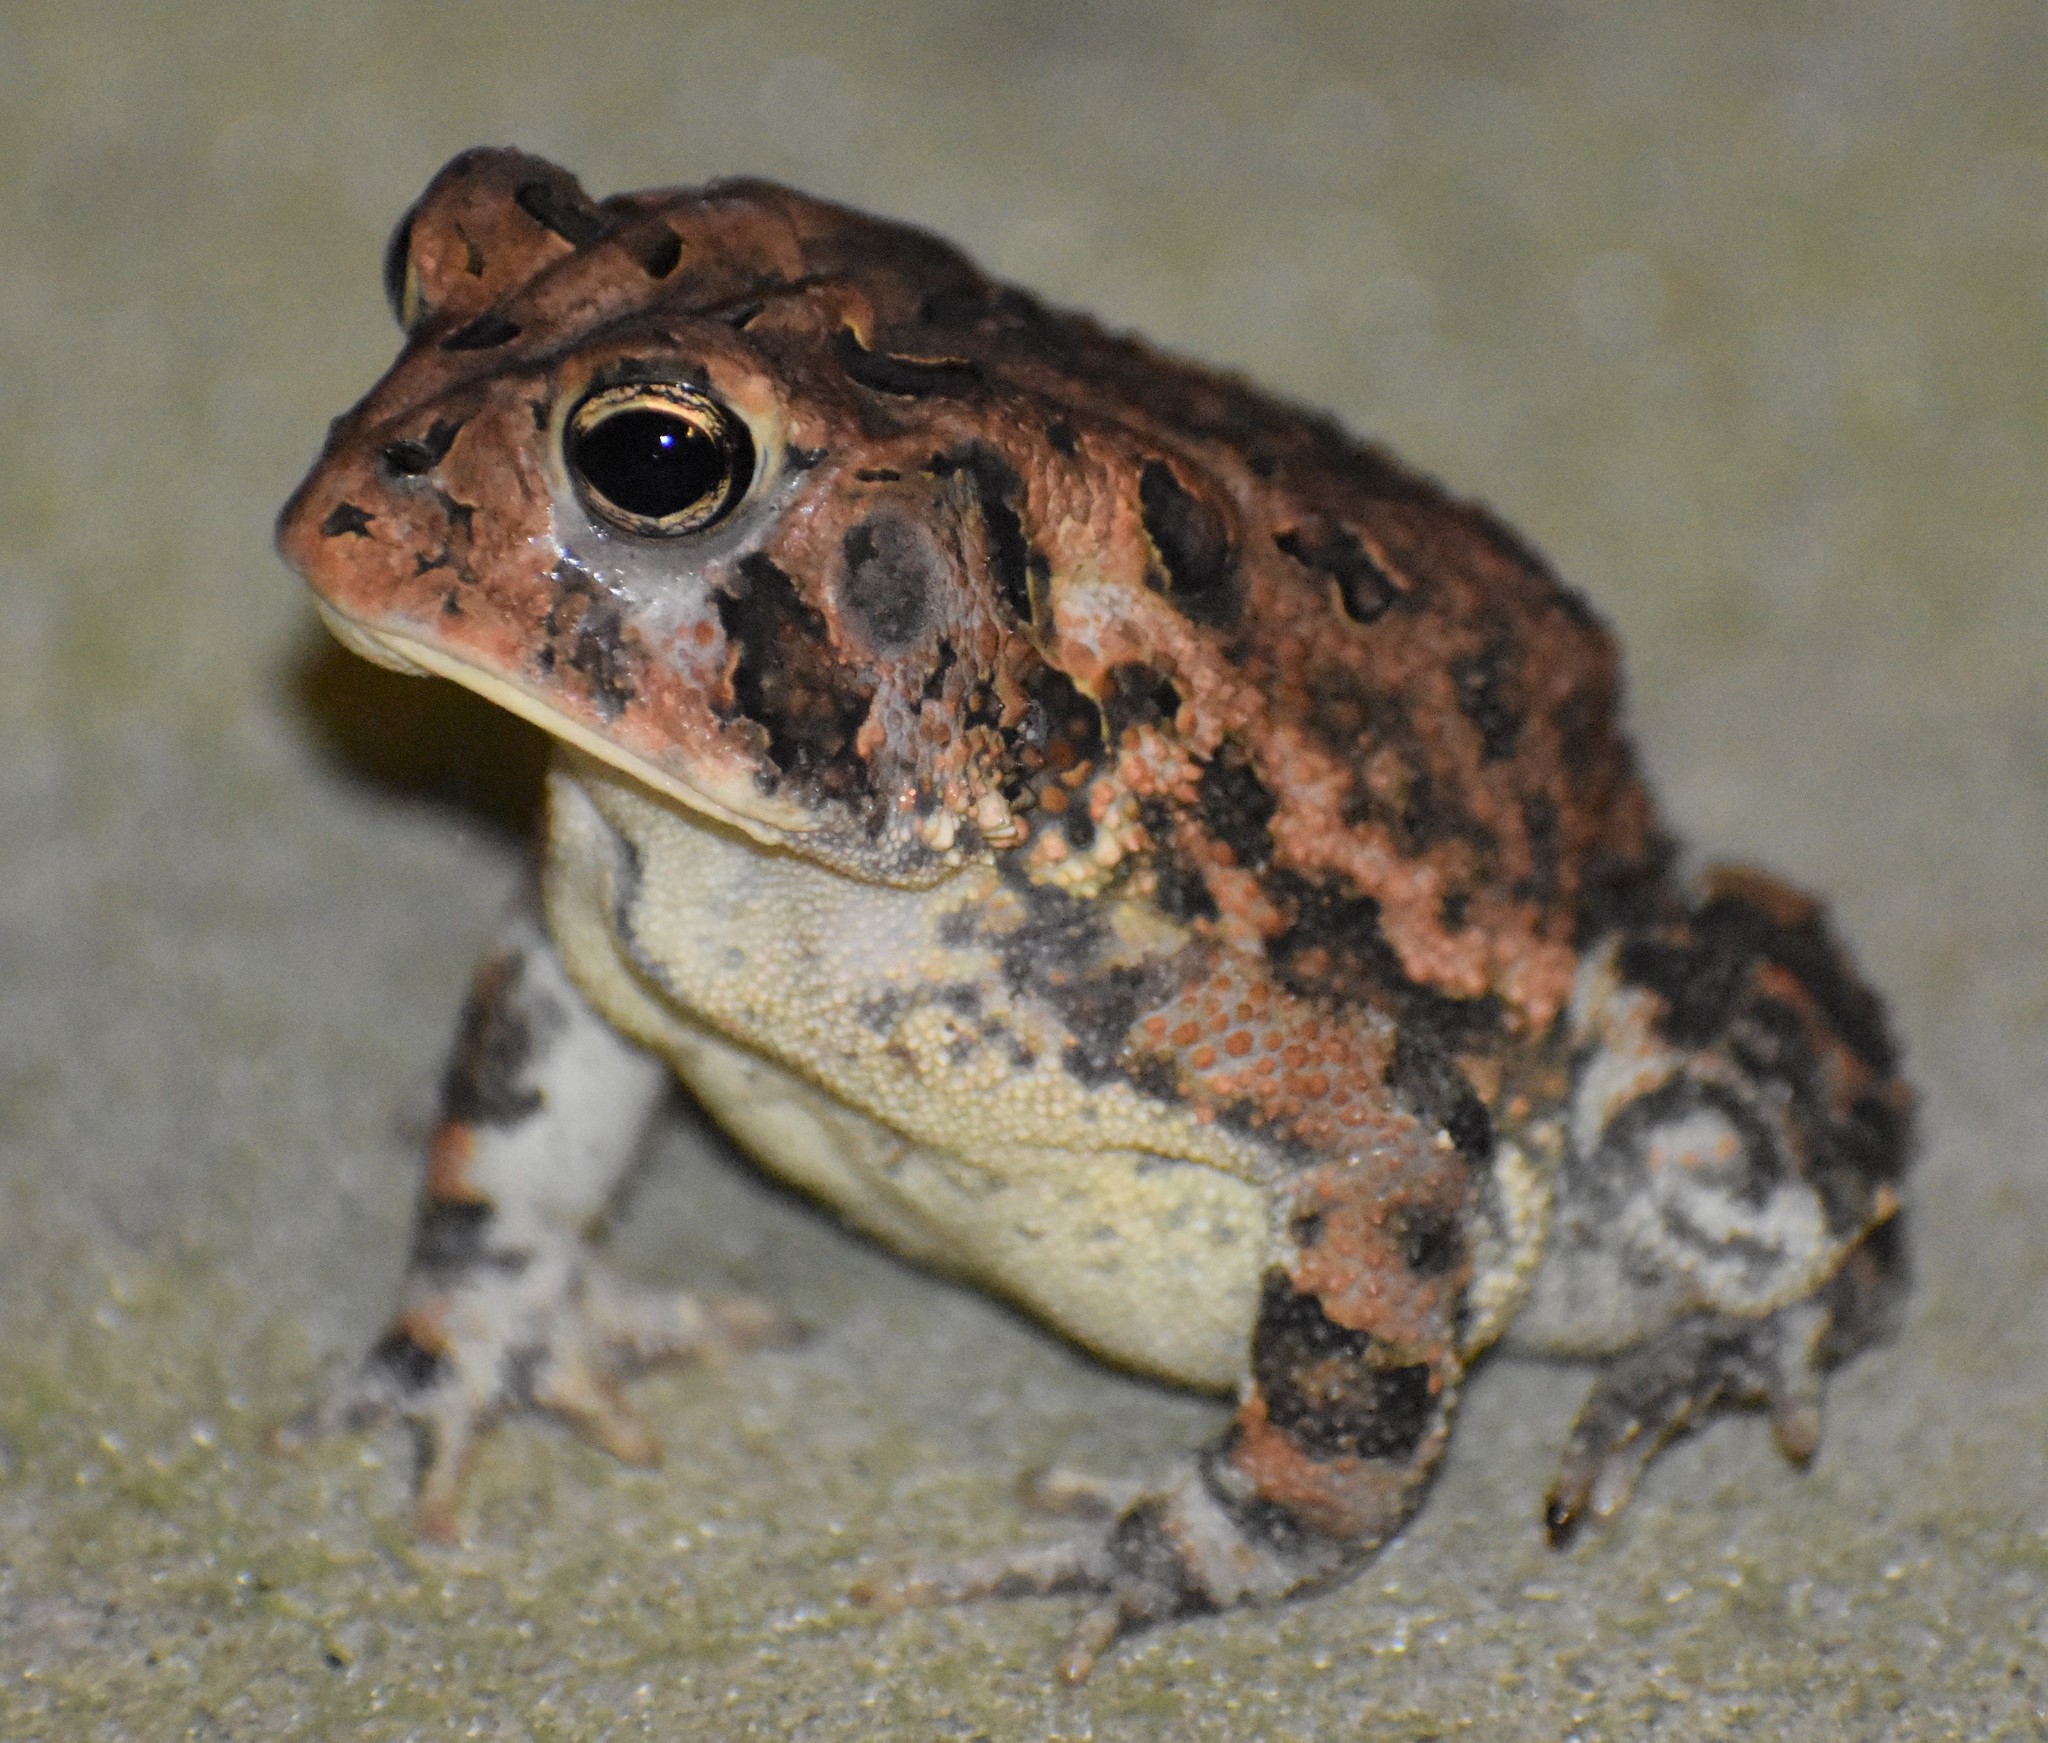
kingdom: Animalia
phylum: Chordata
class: Amphibia
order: Anura
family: Bufonidae
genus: Anaxyrus
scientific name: Anaxyrus terrestris
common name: Southern toad
